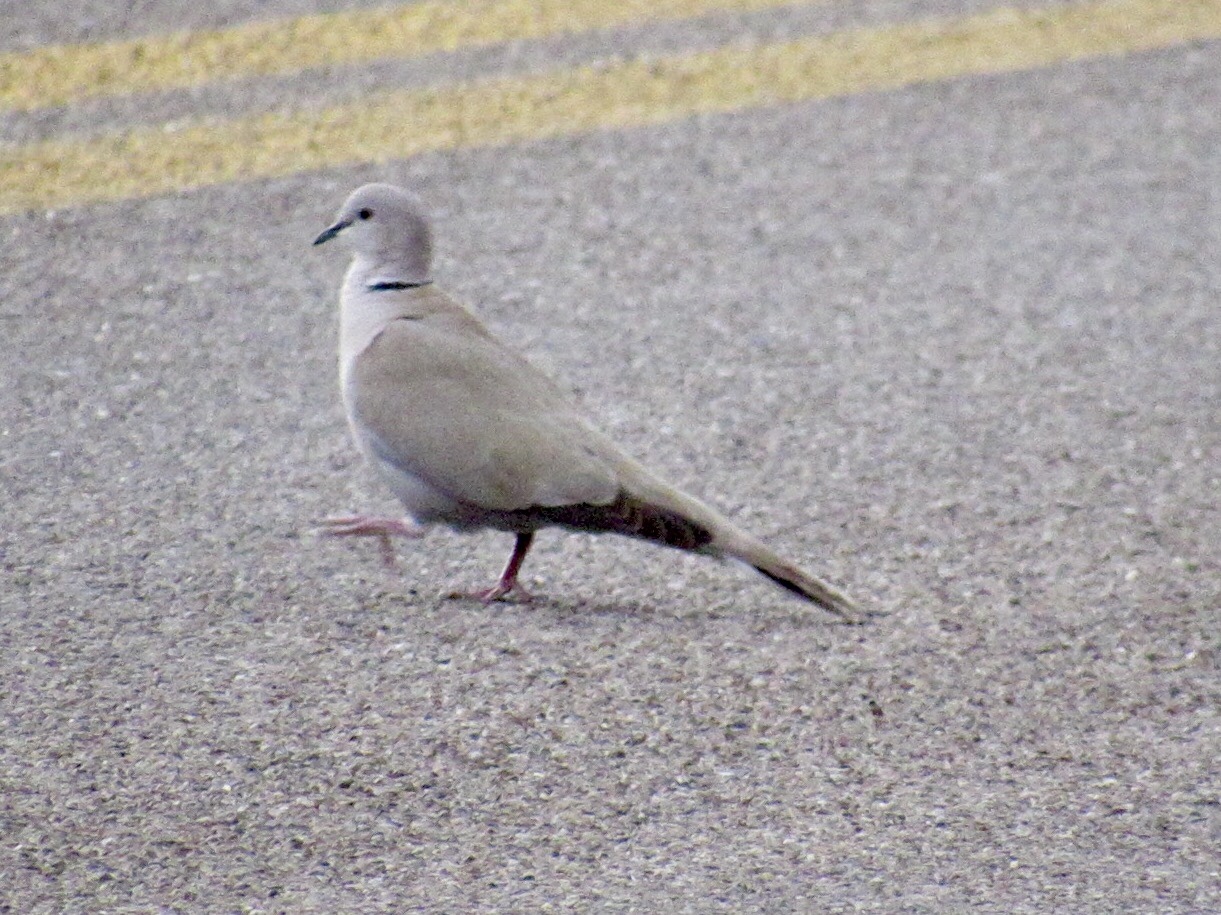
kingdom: Animalia
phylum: Chordata
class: Aves
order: Columbiformes
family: Columbidae
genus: Streptopelia
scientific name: Streptopelia decaocto
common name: Eurasian collared dove
